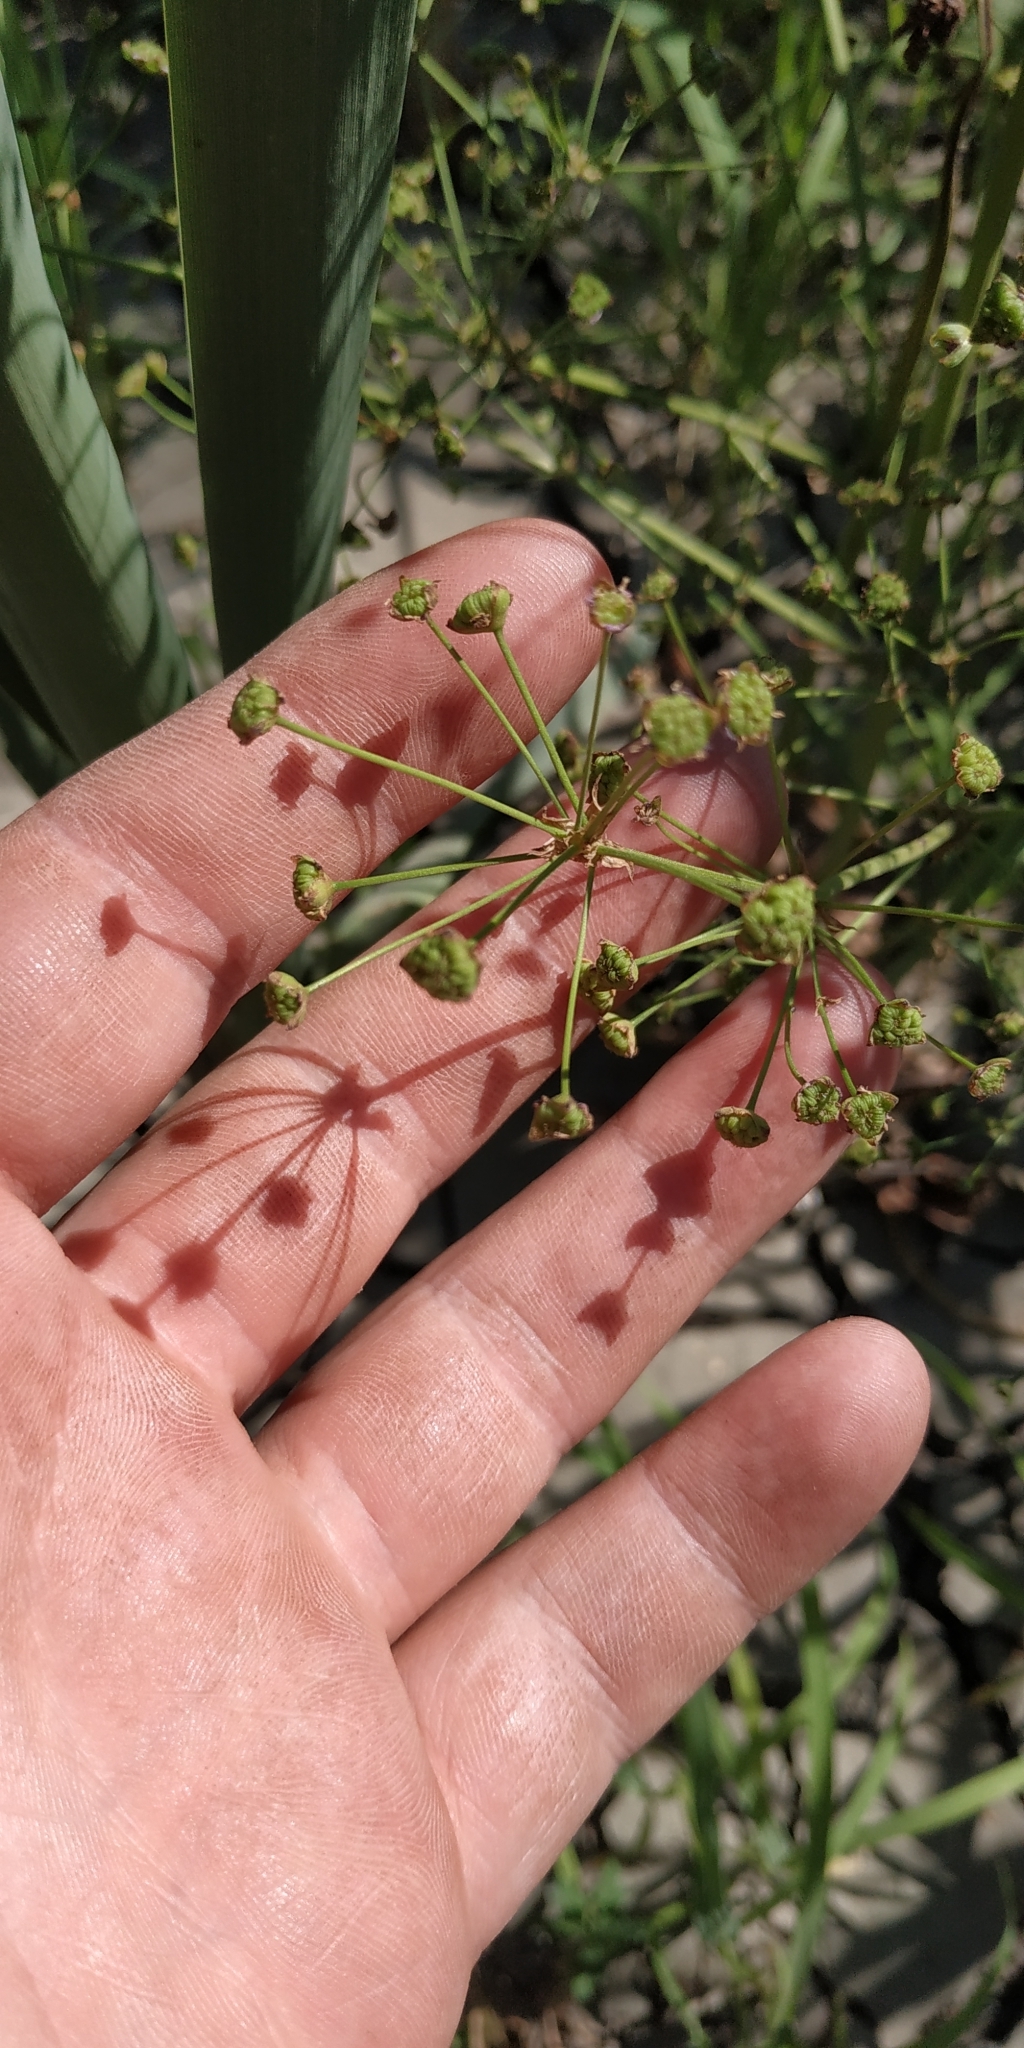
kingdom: Plantae
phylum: Tracheophyta
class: Liliopsida
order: Alismatales
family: Alismataceae
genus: Alisma
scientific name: Alisma plantago-aquatica
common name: Water-plantain
